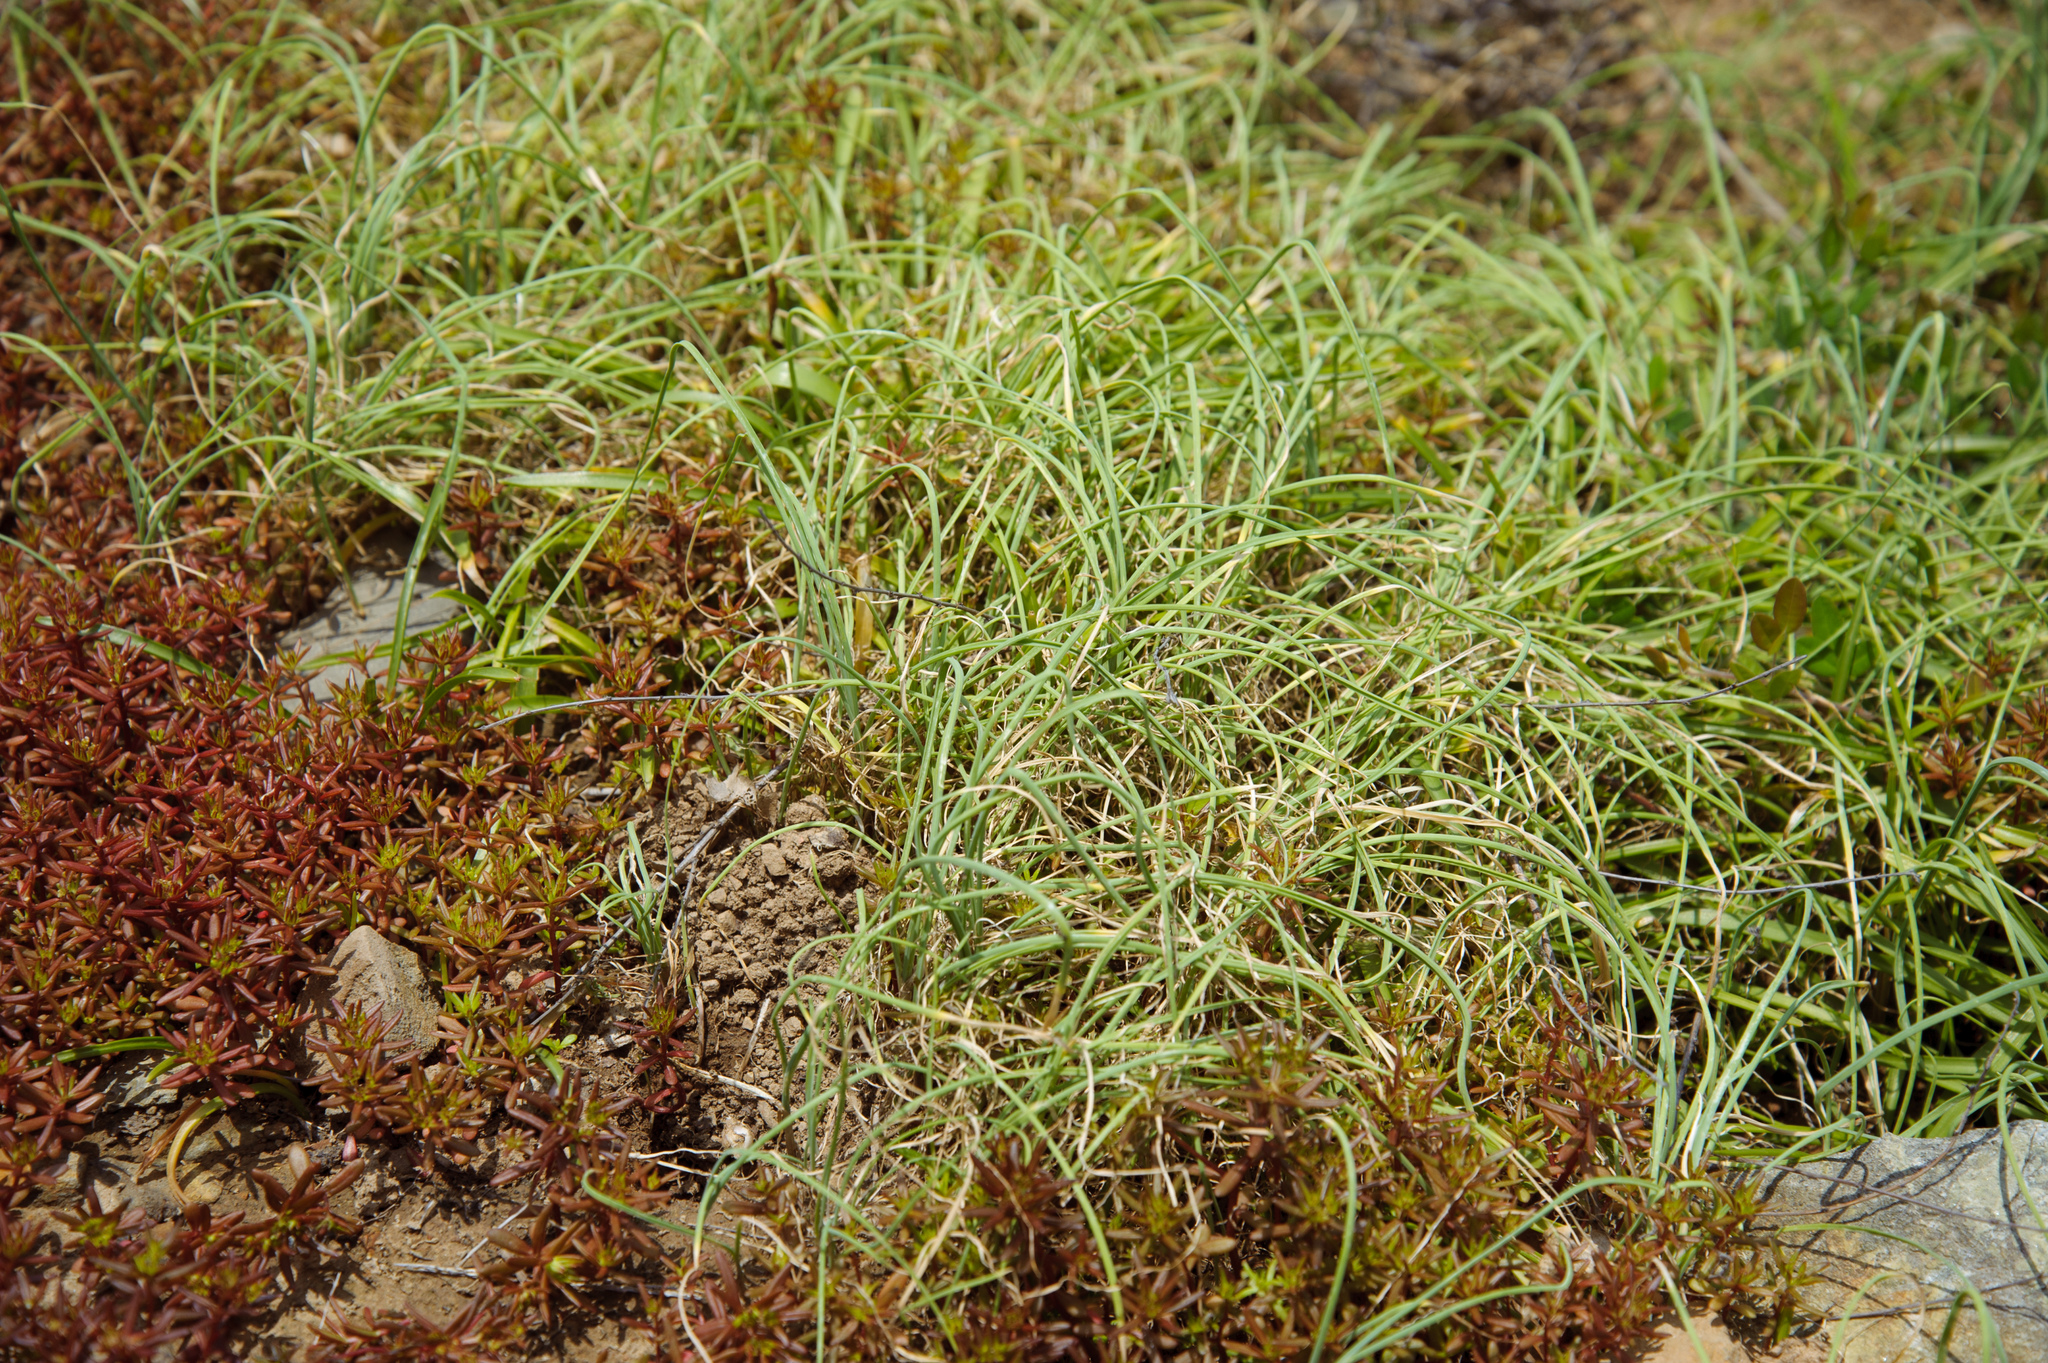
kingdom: Plantae
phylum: Tracheophyta
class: Liliopsida
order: Asparagales
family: Amaryllidaceae
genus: Allium
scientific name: Allium macrostemon
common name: Chinese garlic
